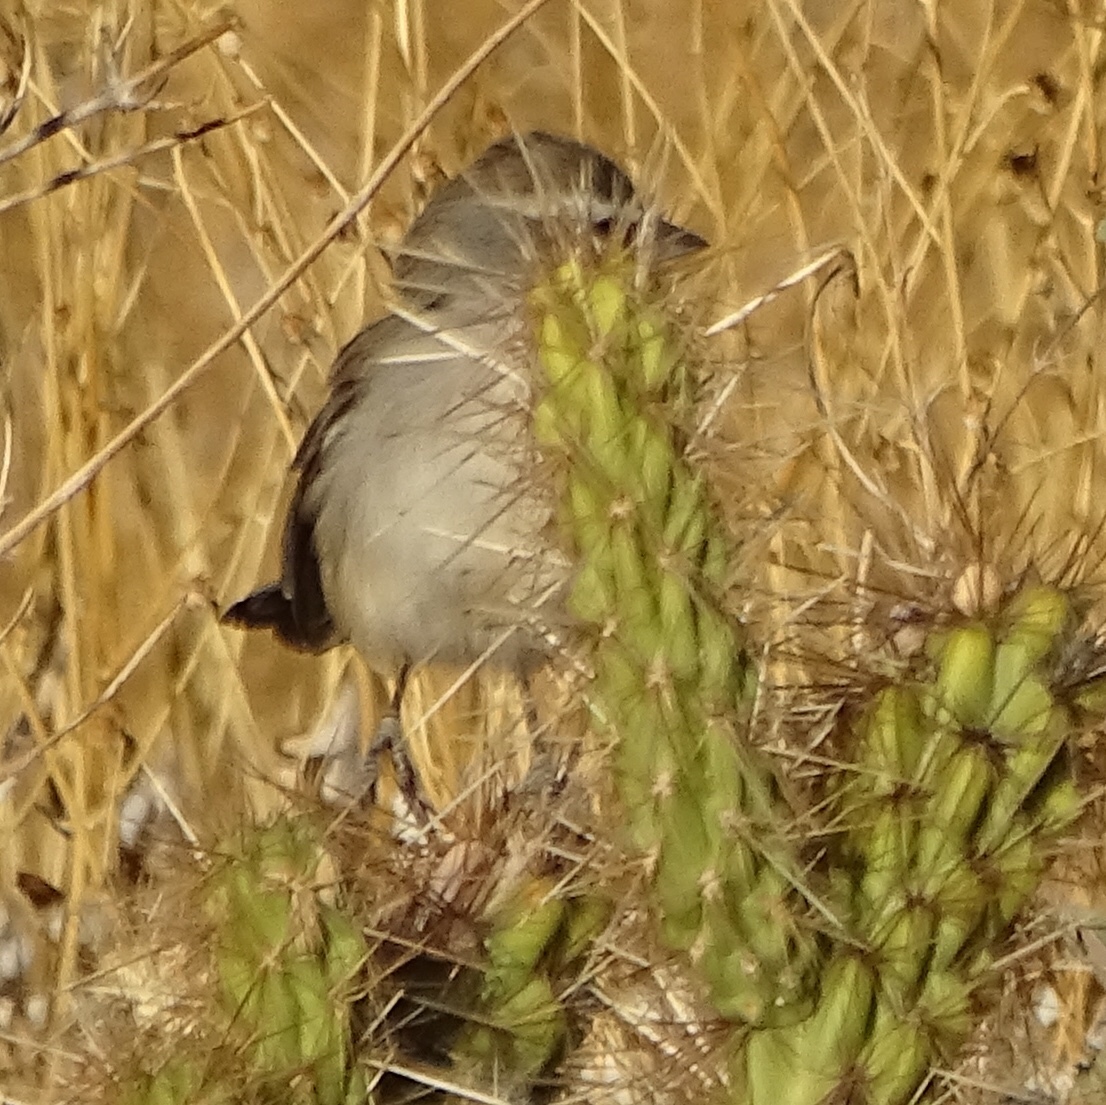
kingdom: Animalia
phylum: Chordata
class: Aves
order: Passeriformes
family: Passerellidae
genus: Amphispiza
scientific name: Amphispiza bilineata
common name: Black-throated sparrow
